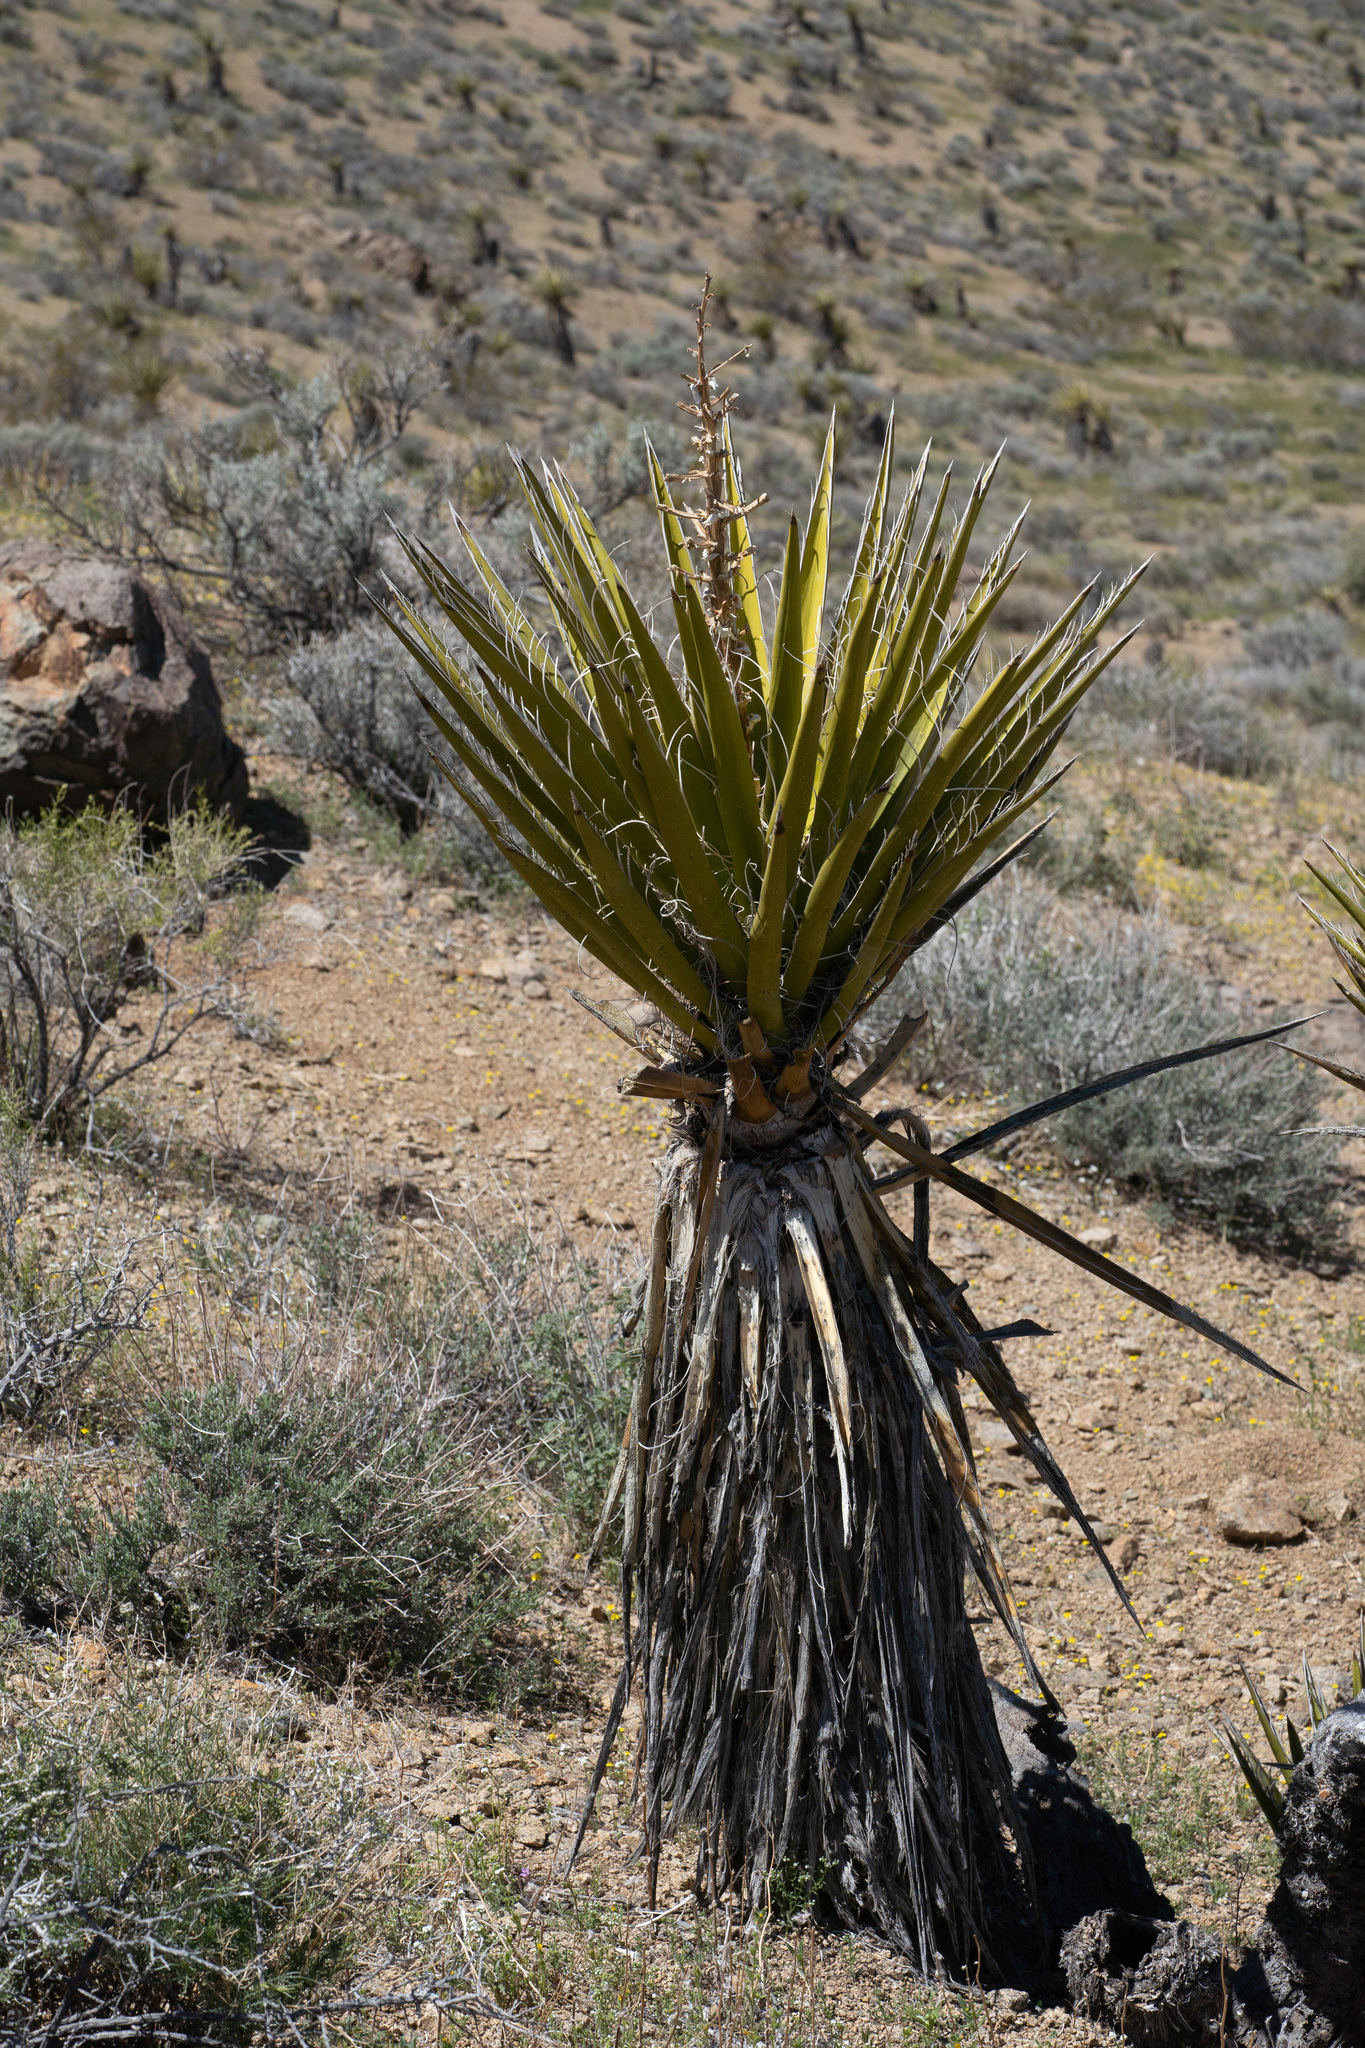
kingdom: Plantae
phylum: Tracheophyta
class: Liliopsida
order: Asparagales
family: Asparagaceae
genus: Yucca
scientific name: Yucca schidigera
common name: Mojave yucca
